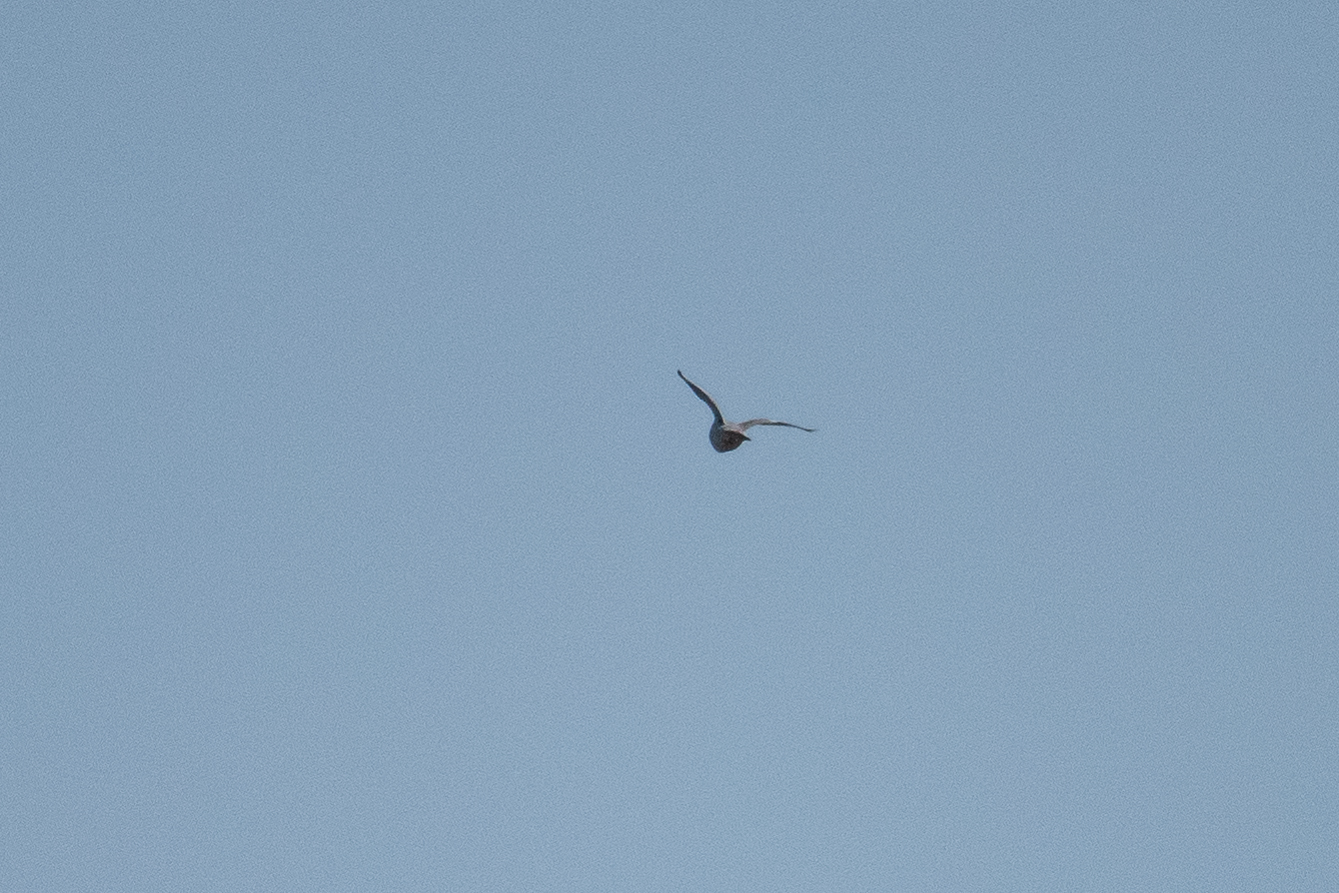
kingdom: Animalia
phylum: Chordata
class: Aves
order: Columbiformes
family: Columbidae
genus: Columba
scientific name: Columba palumbus
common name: Common wood pigeon
